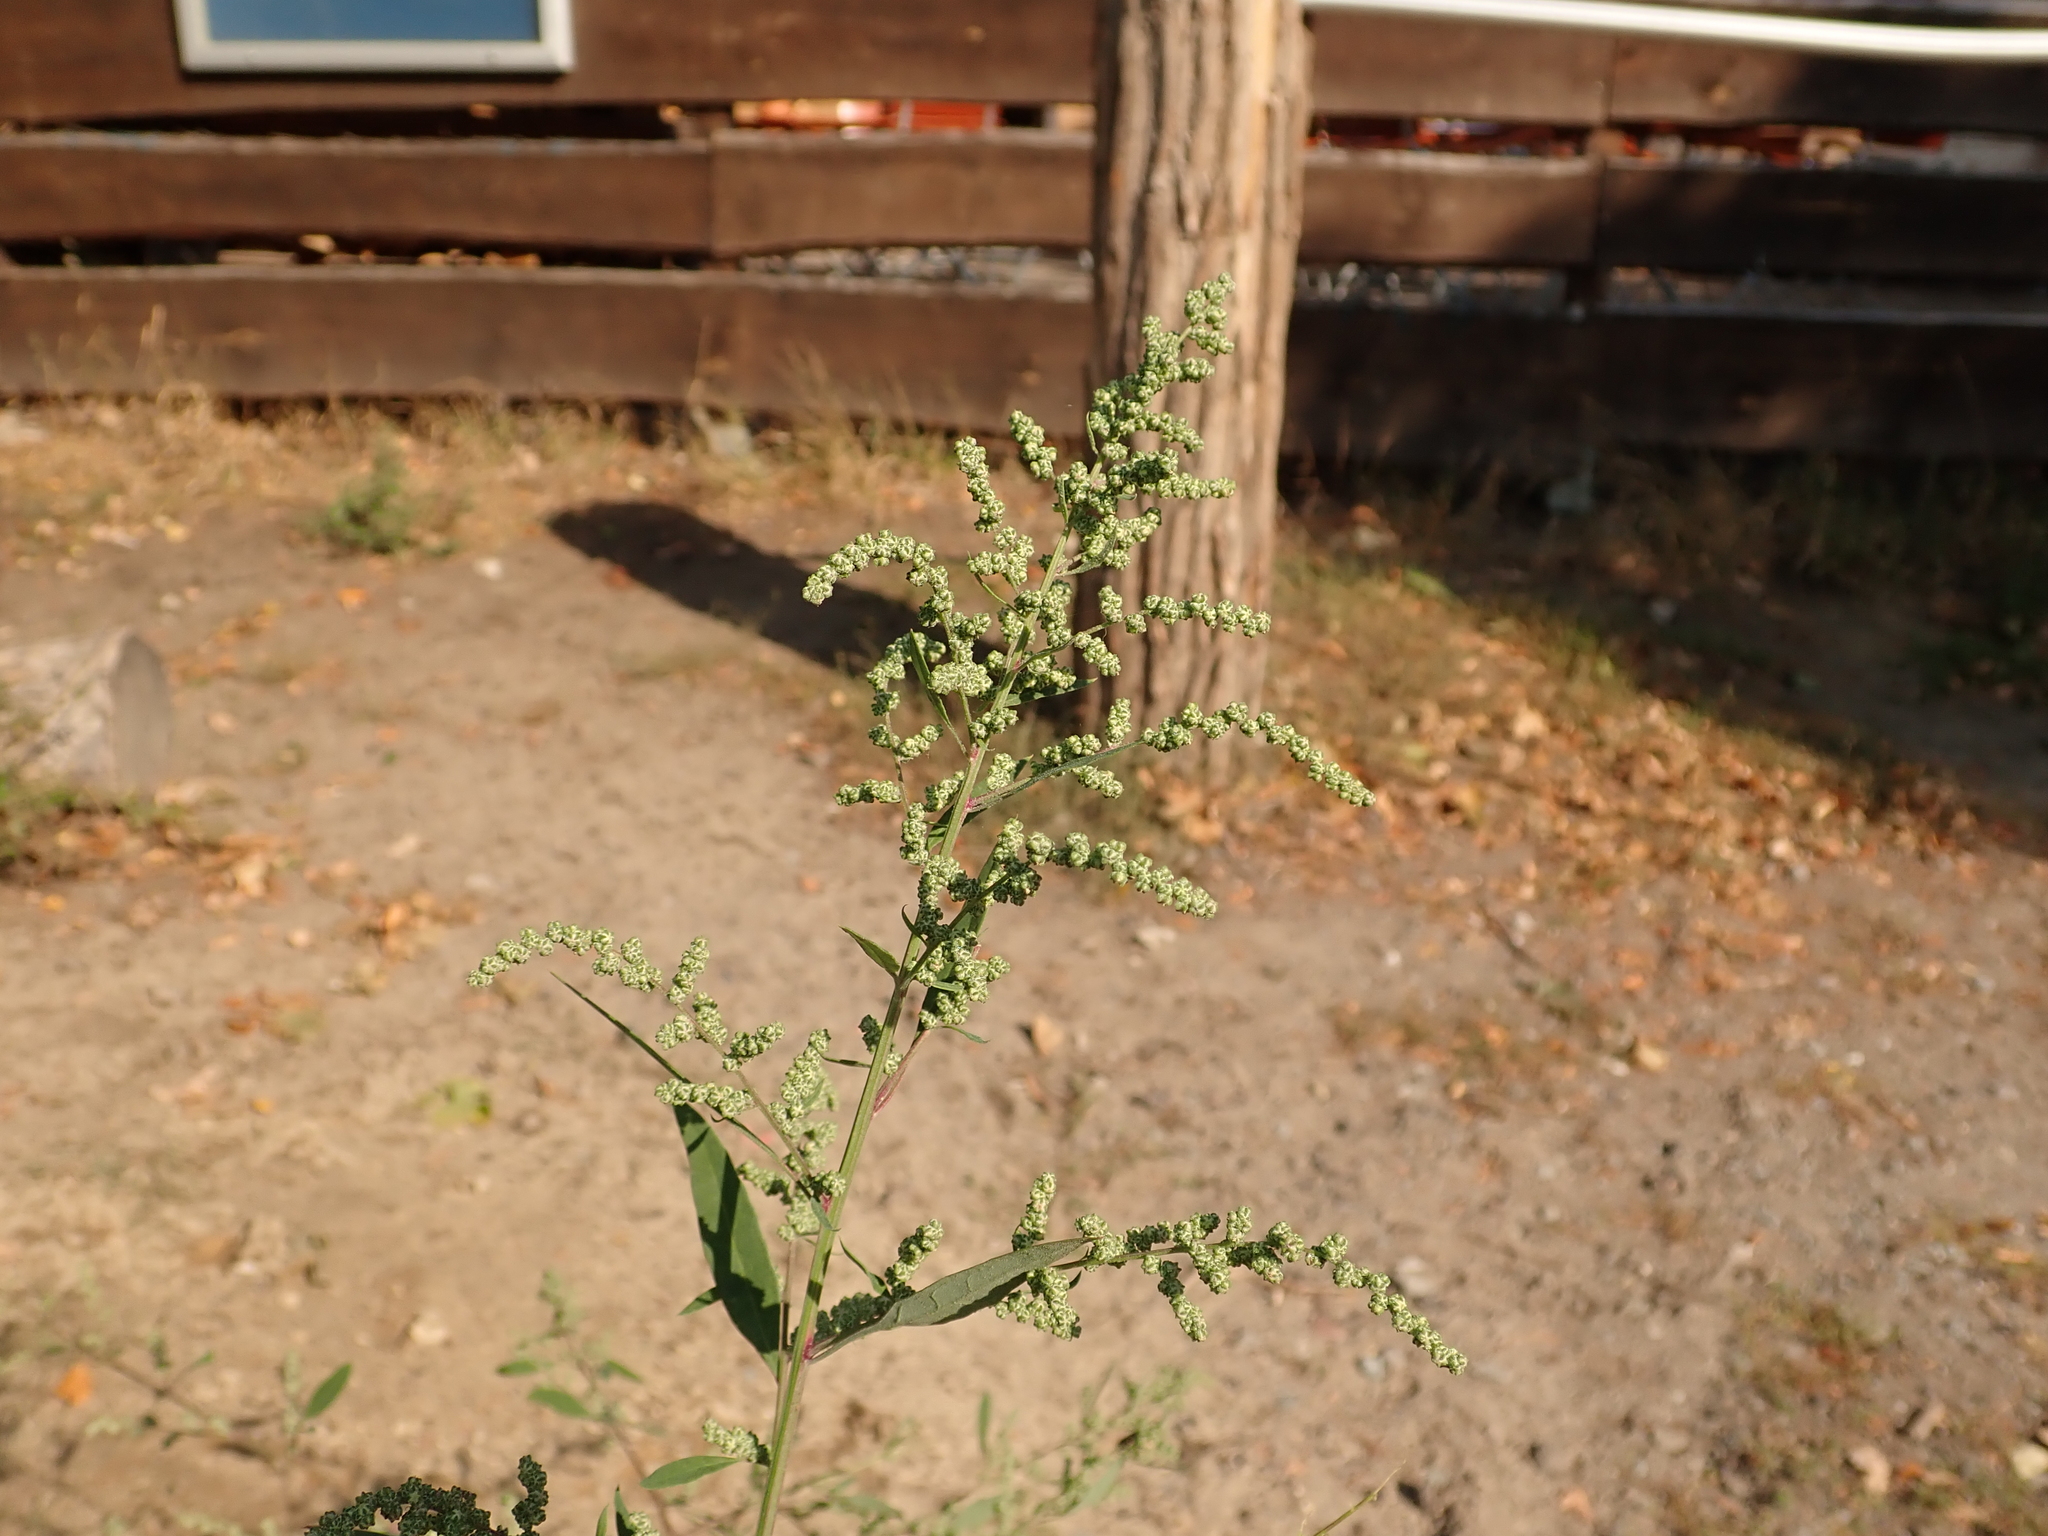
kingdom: Plantae
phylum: Tracheophyta
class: Magnoliopsida
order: Caryophyllales
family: Amaranthaceae
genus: Chenopodium
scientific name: Chenopodium album
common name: Fat-hen
